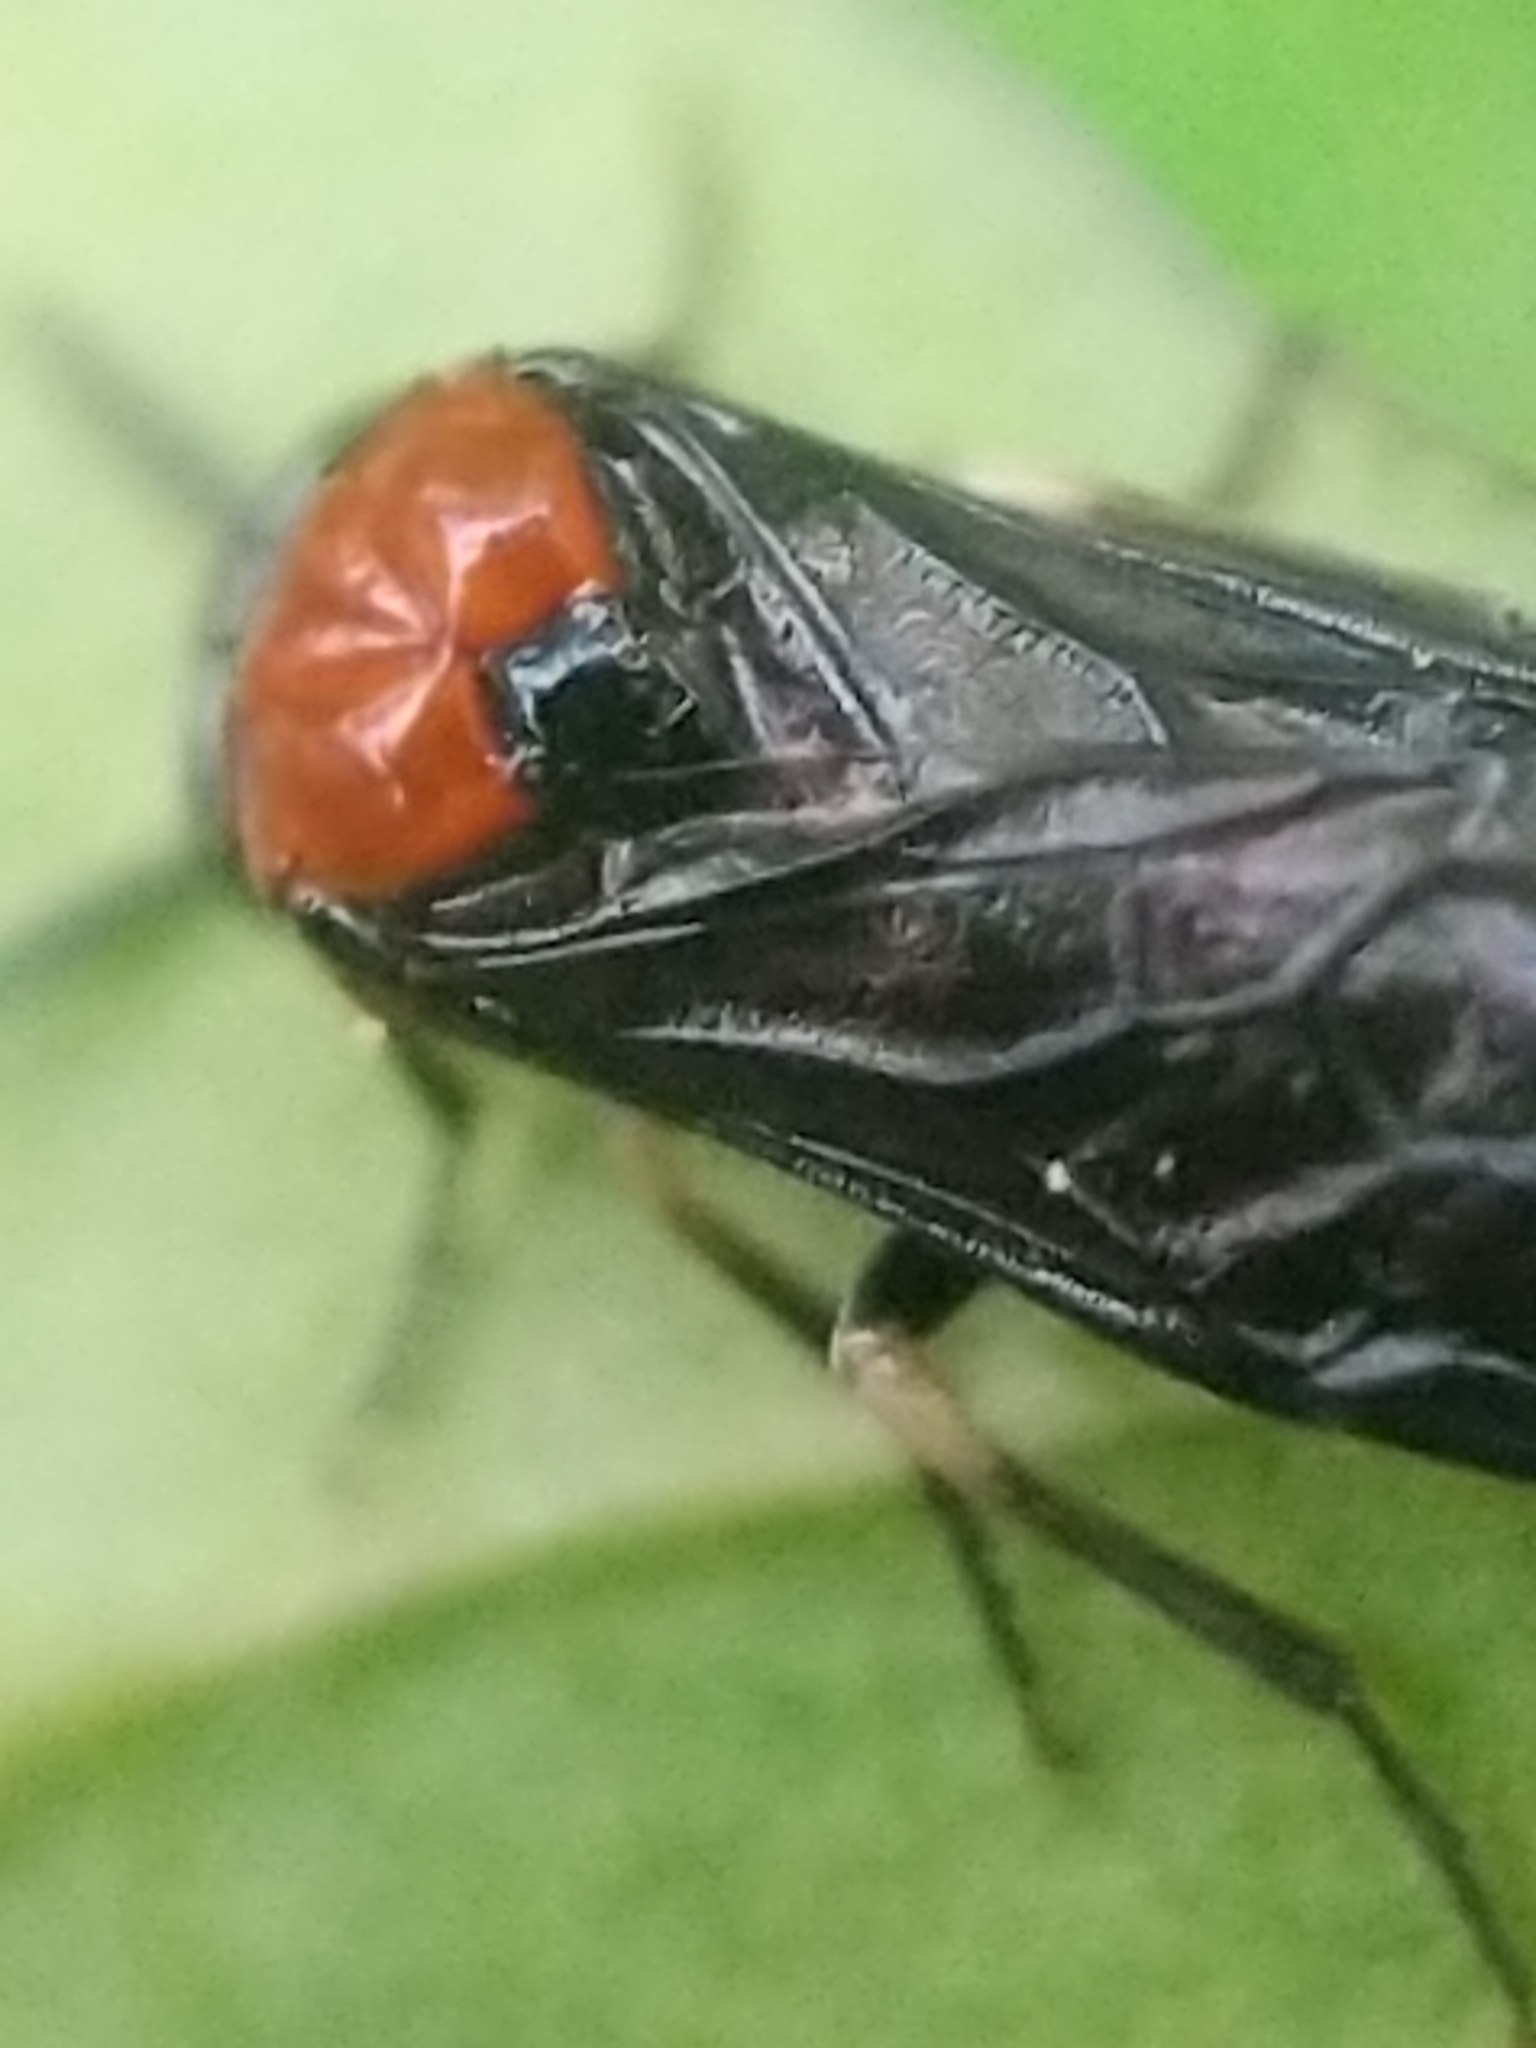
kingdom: Animalia
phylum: Arthropoda
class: Insecta
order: Hymenoptera
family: Tenthredinidae
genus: Eutomostethus
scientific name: Eutomostethus ephippium
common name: Tenthredid wasp
